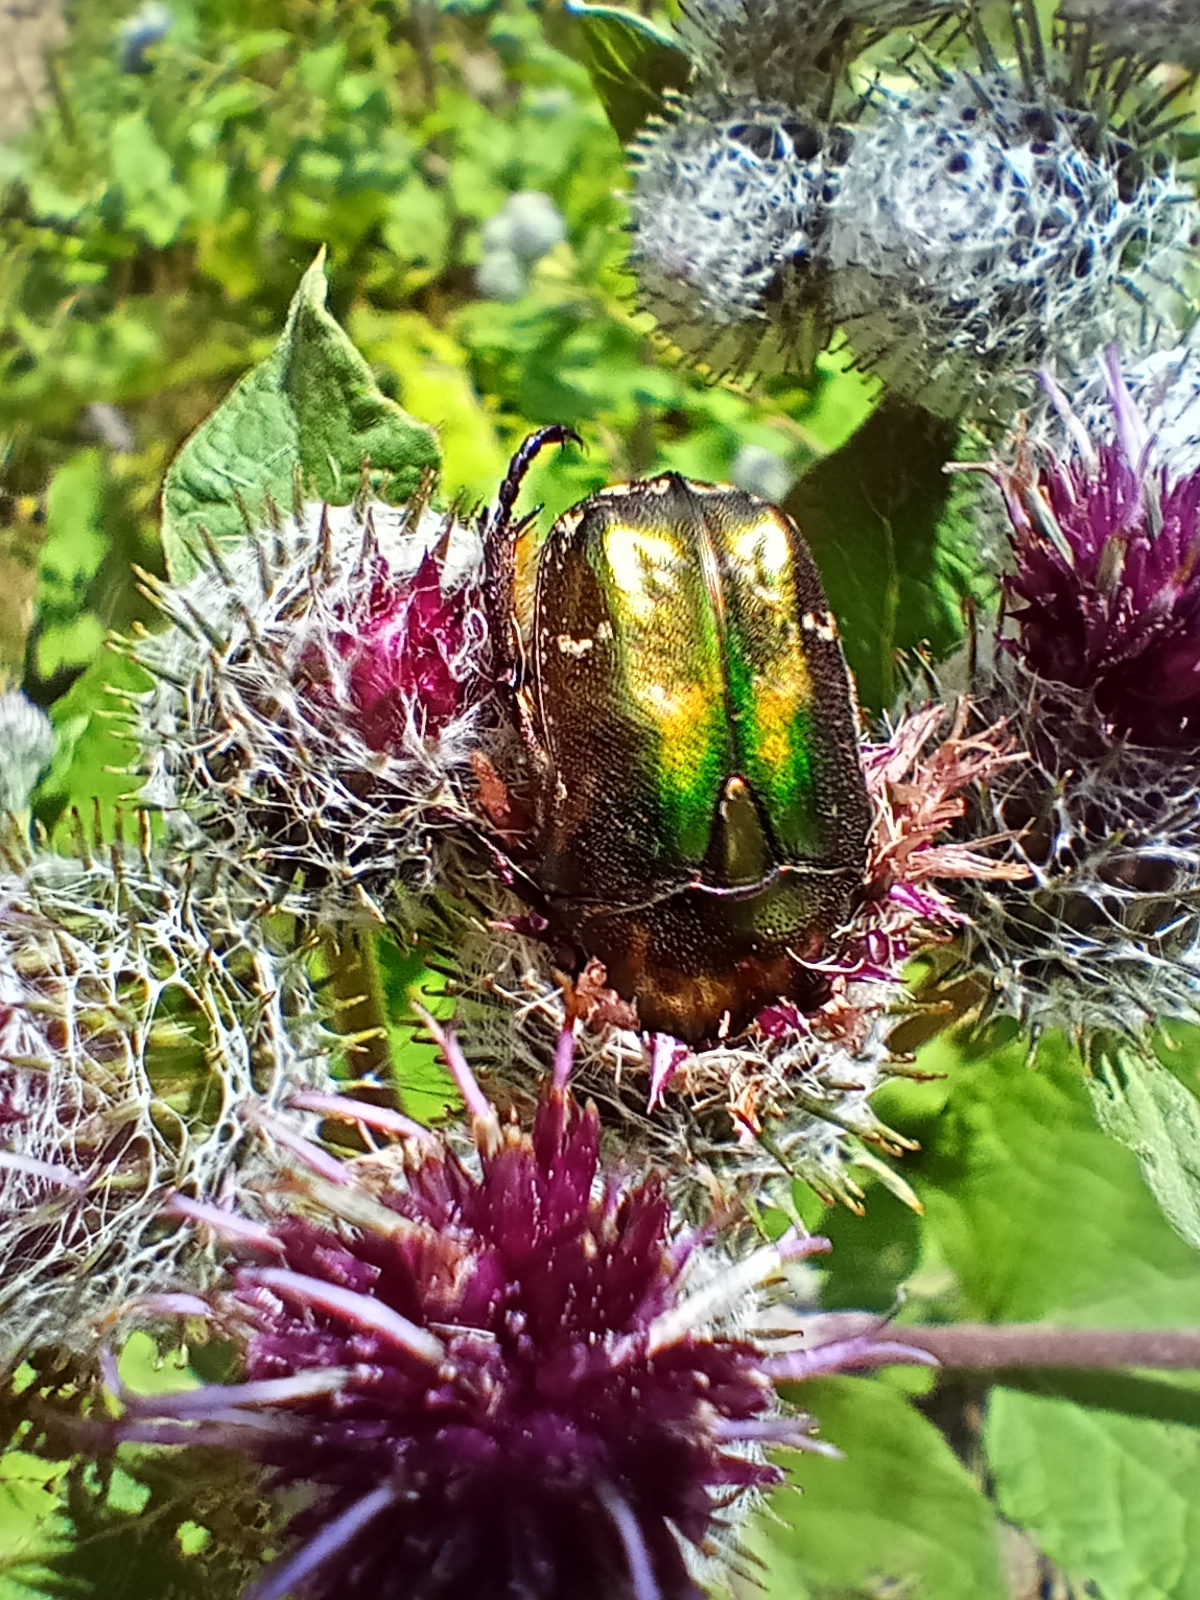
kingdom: Animalia
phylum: Arthropoda
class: Insecta
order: Coleoptera
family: Scarabaeidae
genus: Protaetia
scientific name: Protaetia cuprea
